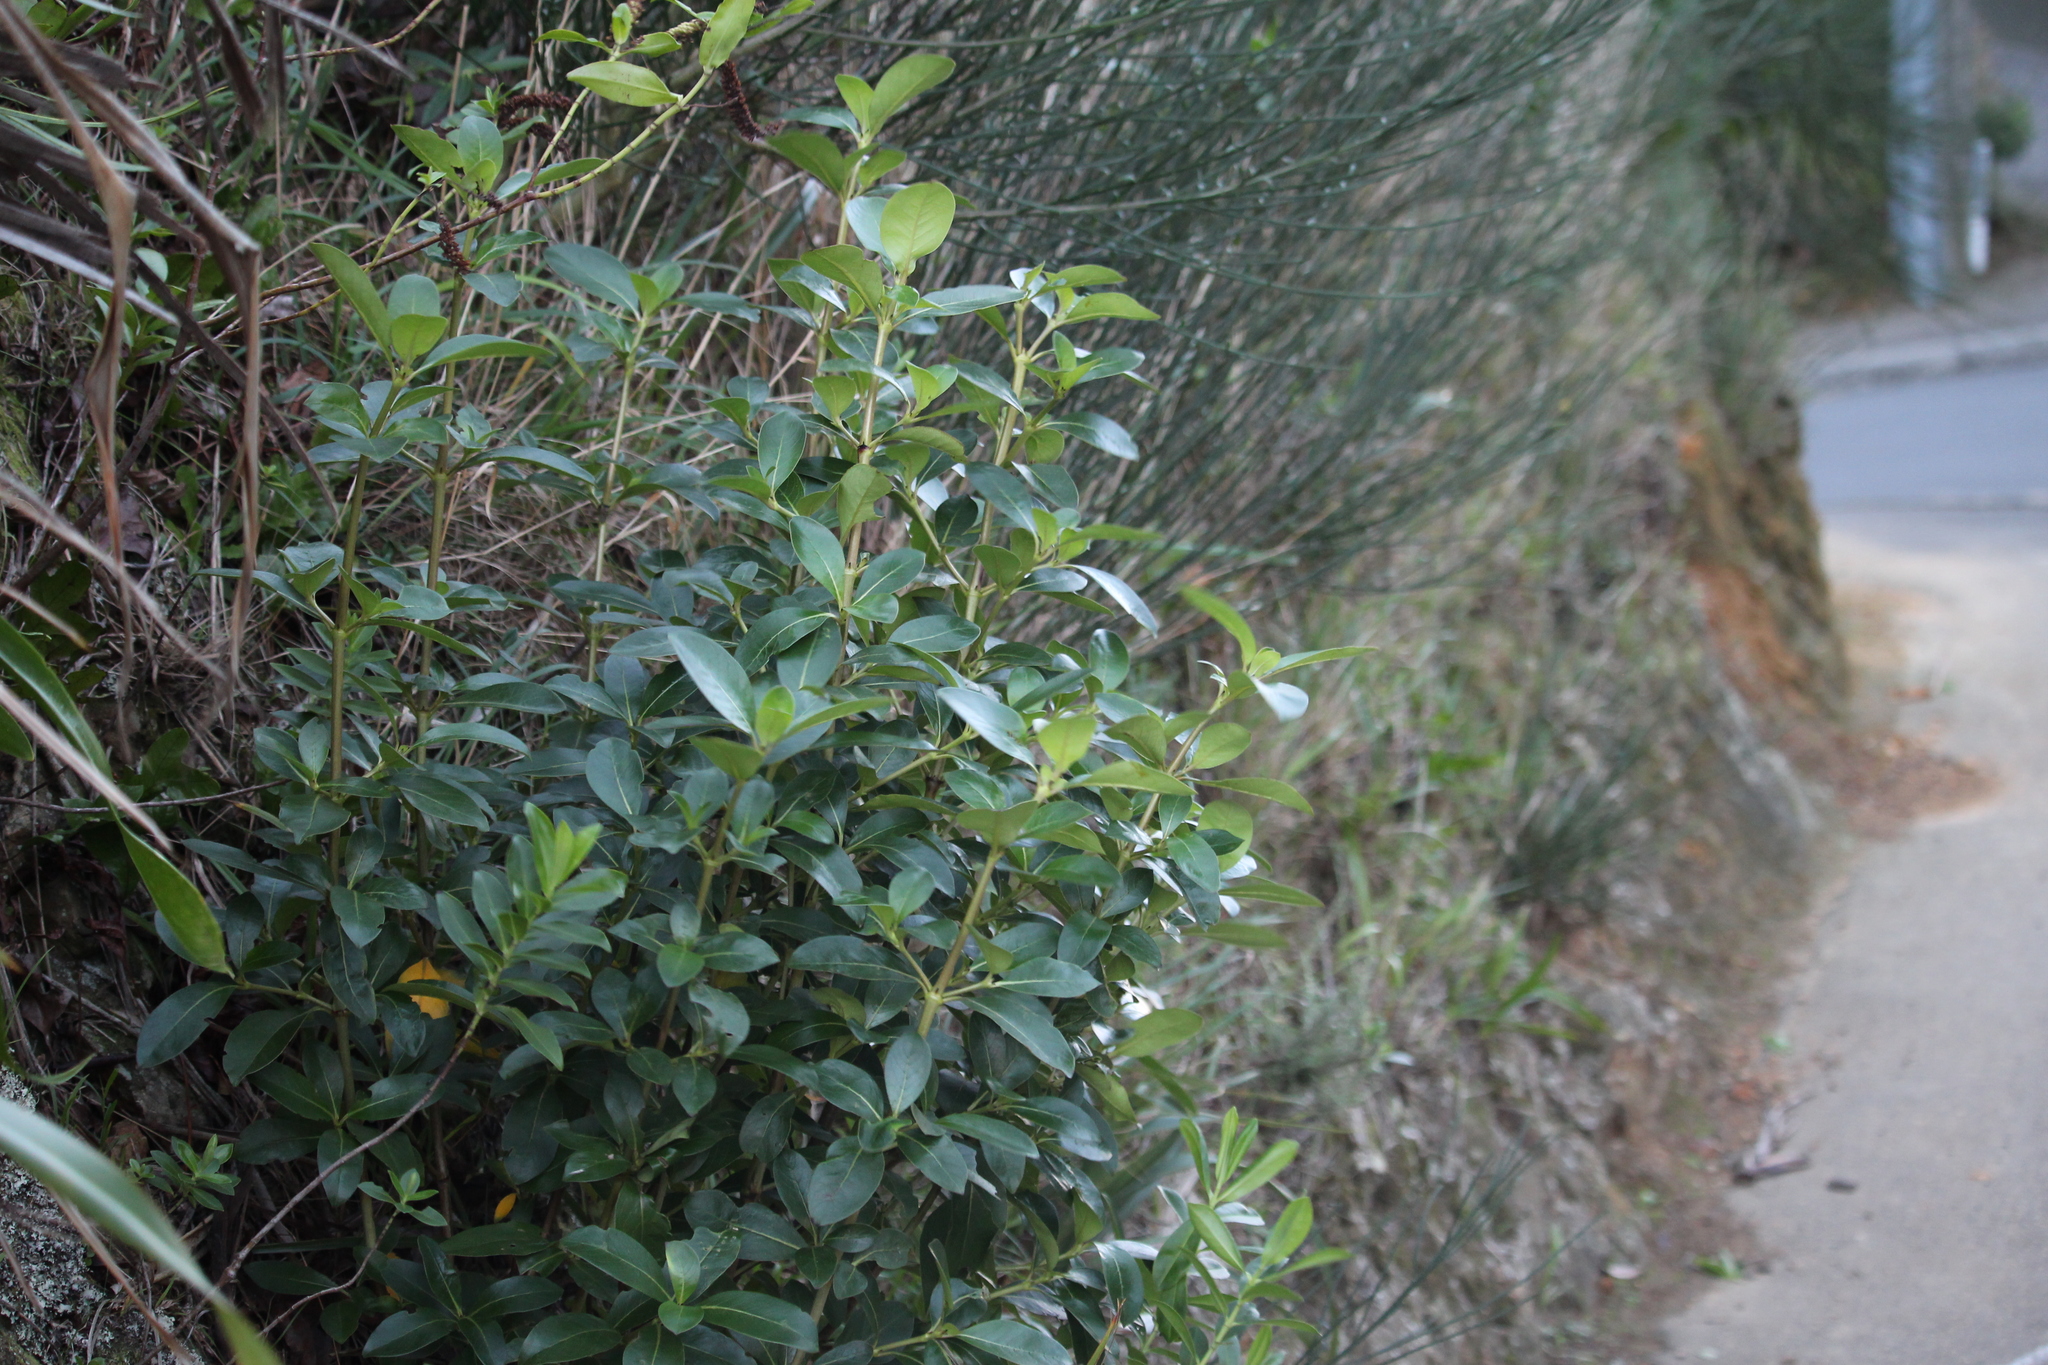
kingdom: Plantae
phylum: Tracheophyta
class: Magnoliopsida
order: Gentianales
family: Rubiaceae
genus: Coprosma
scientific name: Coprosma robusta
